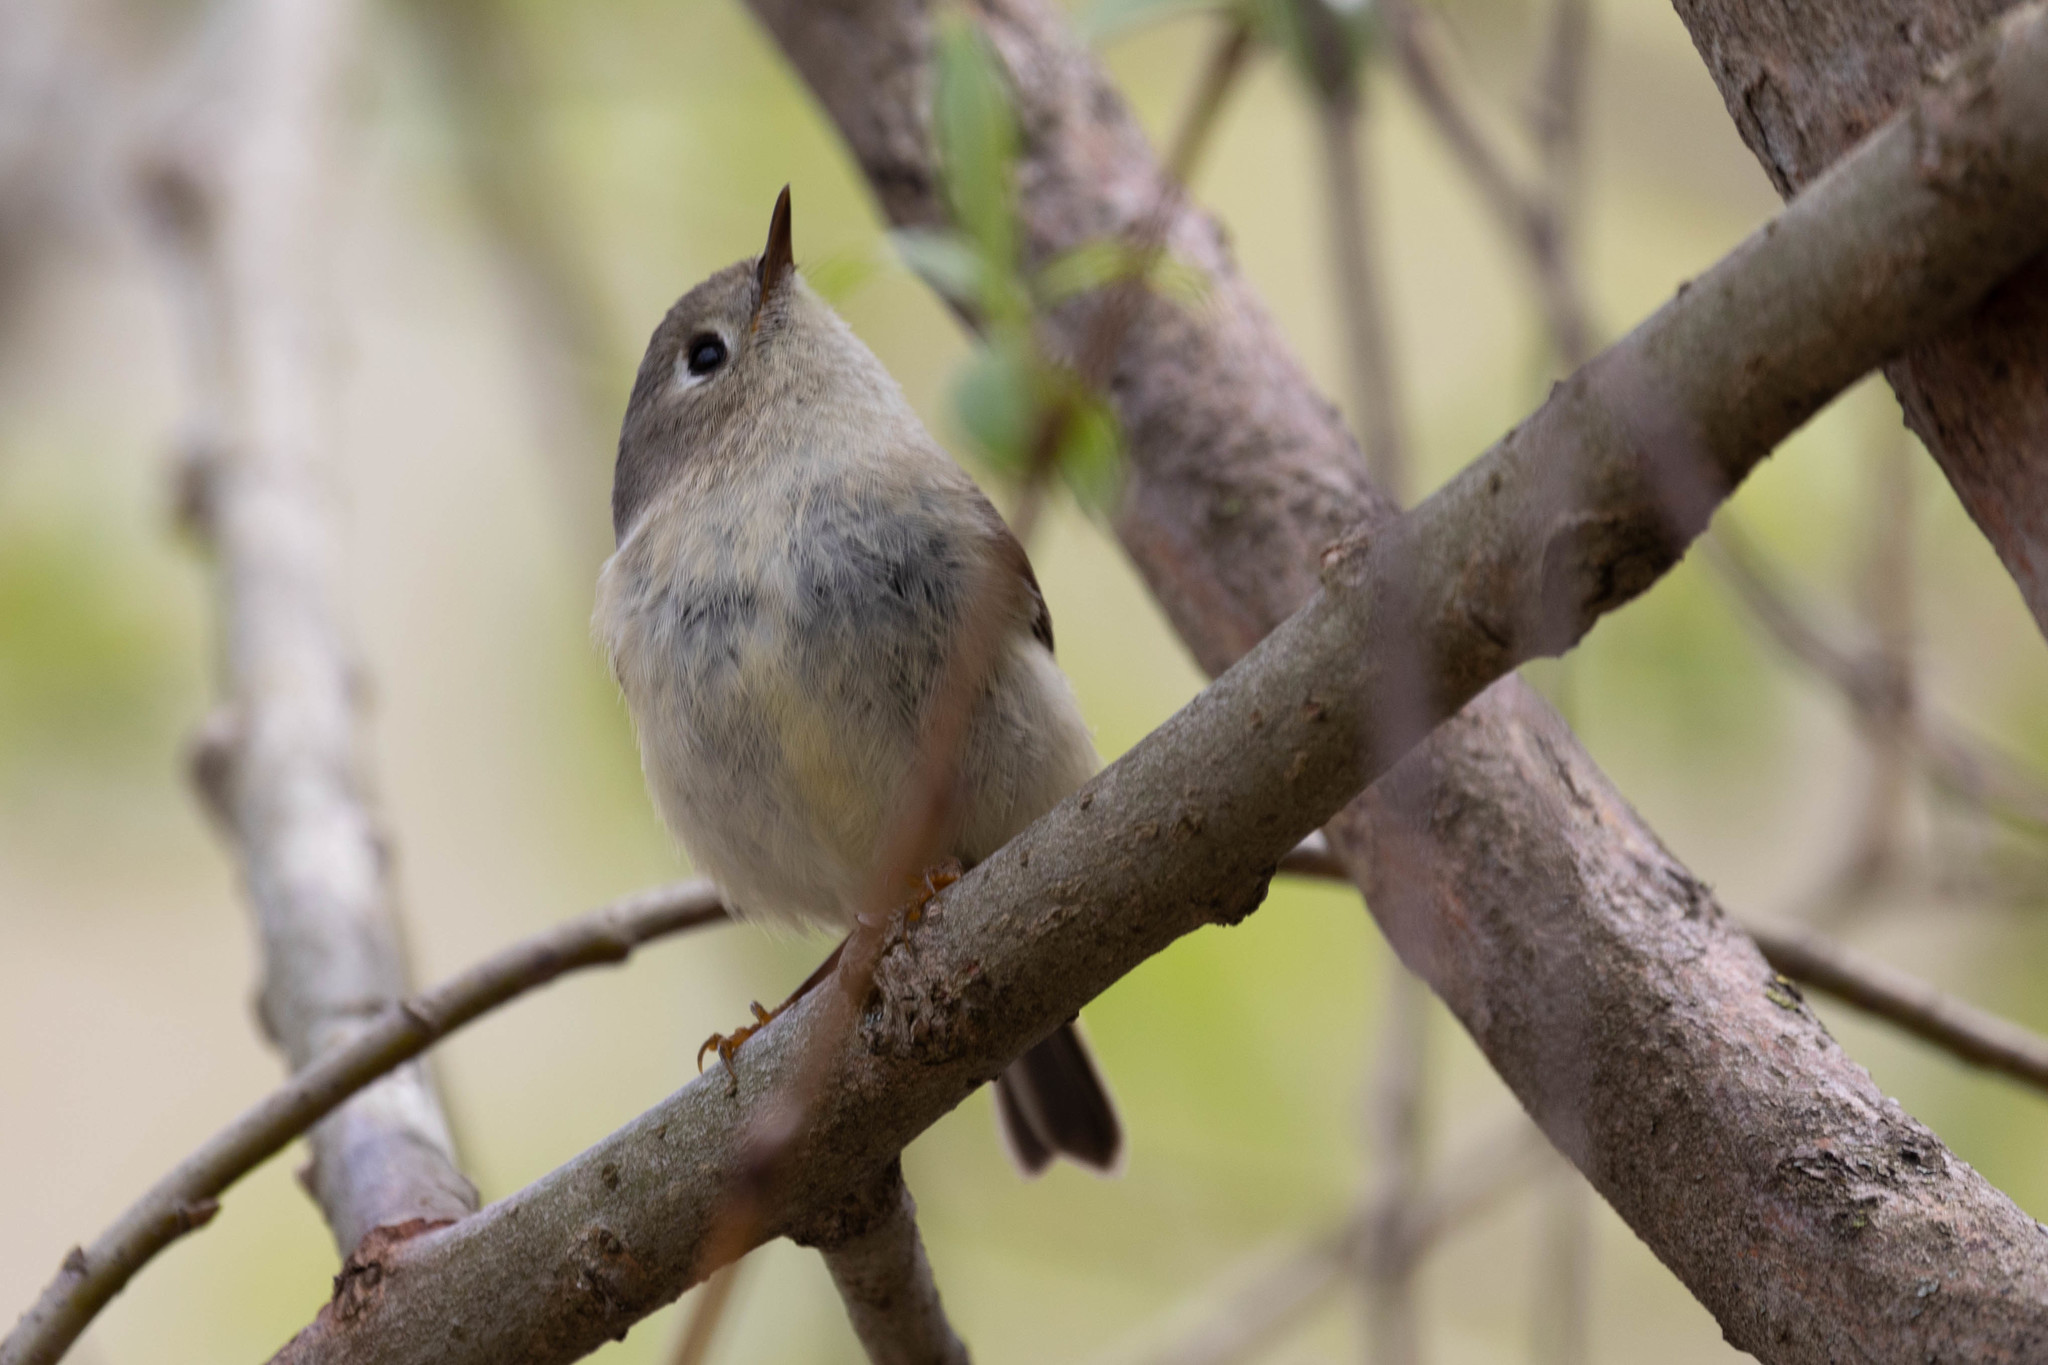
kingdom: Animalia
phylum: Chordata
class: Aves
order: Passeriformes
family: Regulidae
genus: Regulus
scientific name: Regulus calendula
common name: Ruby-crowned kinglet
